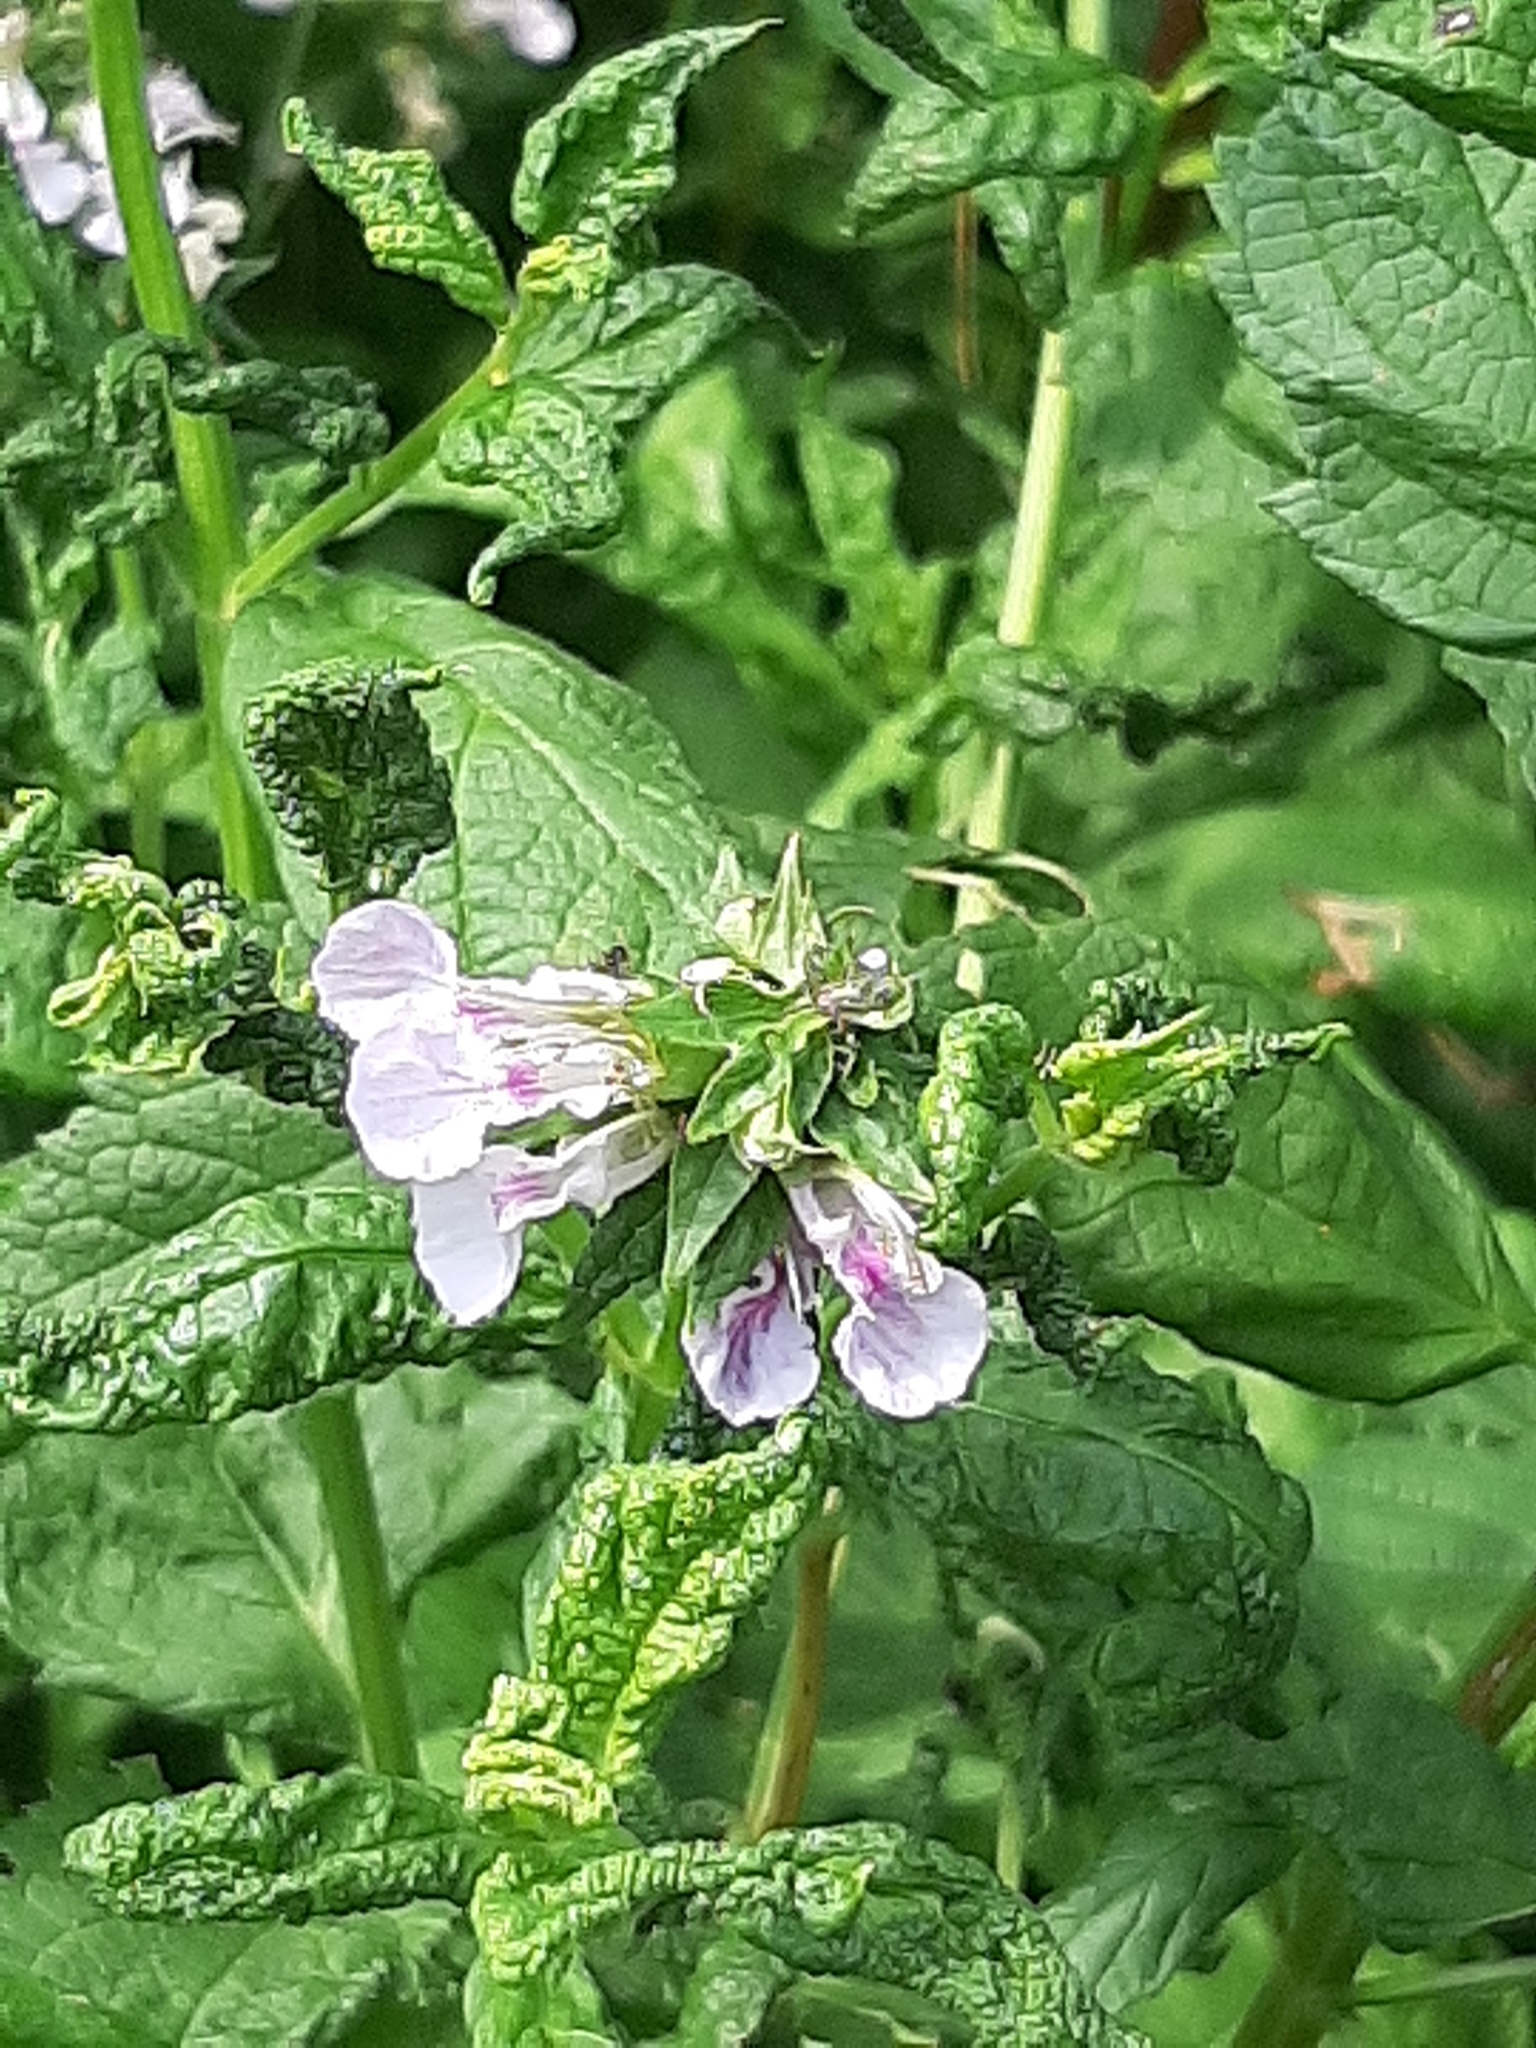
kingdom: Plantae
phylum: Tracheophyta
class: Magnoliopsida
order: Lamiales
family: Lamiaceae
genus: Teucrium
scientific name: Teucrium canadense
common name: American germander
